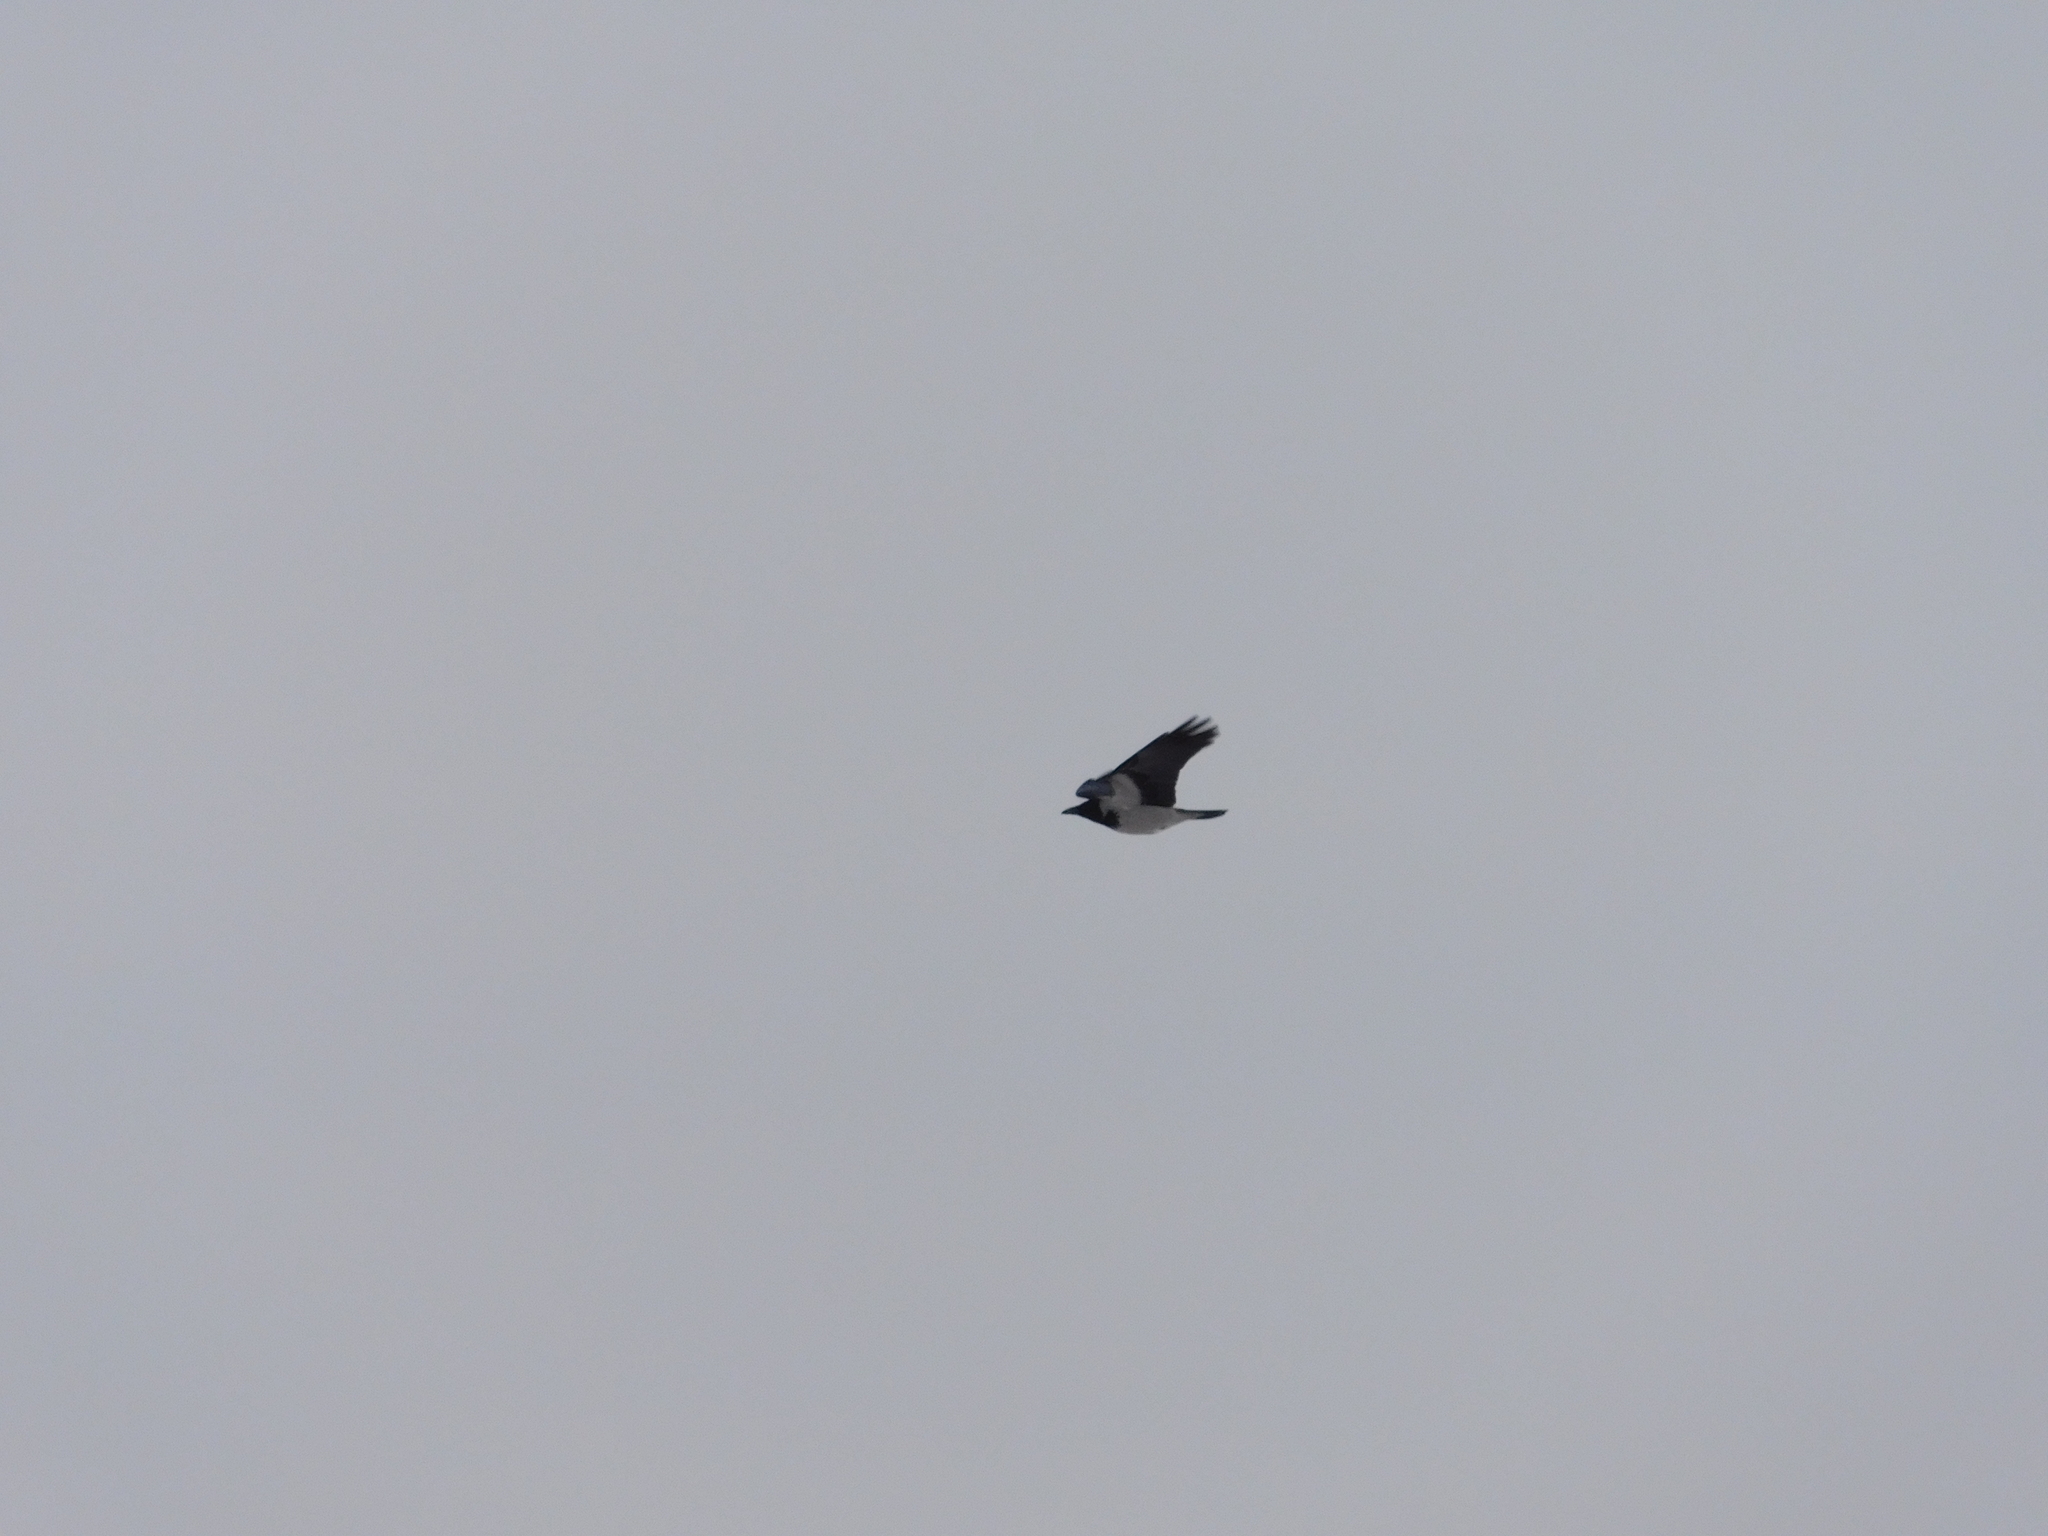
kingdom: Animalia
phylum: Chordata
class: Aves
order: Passeriformes
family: Corvidae
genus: Corvus
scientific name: Corvus cornix
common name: Hooded crow
